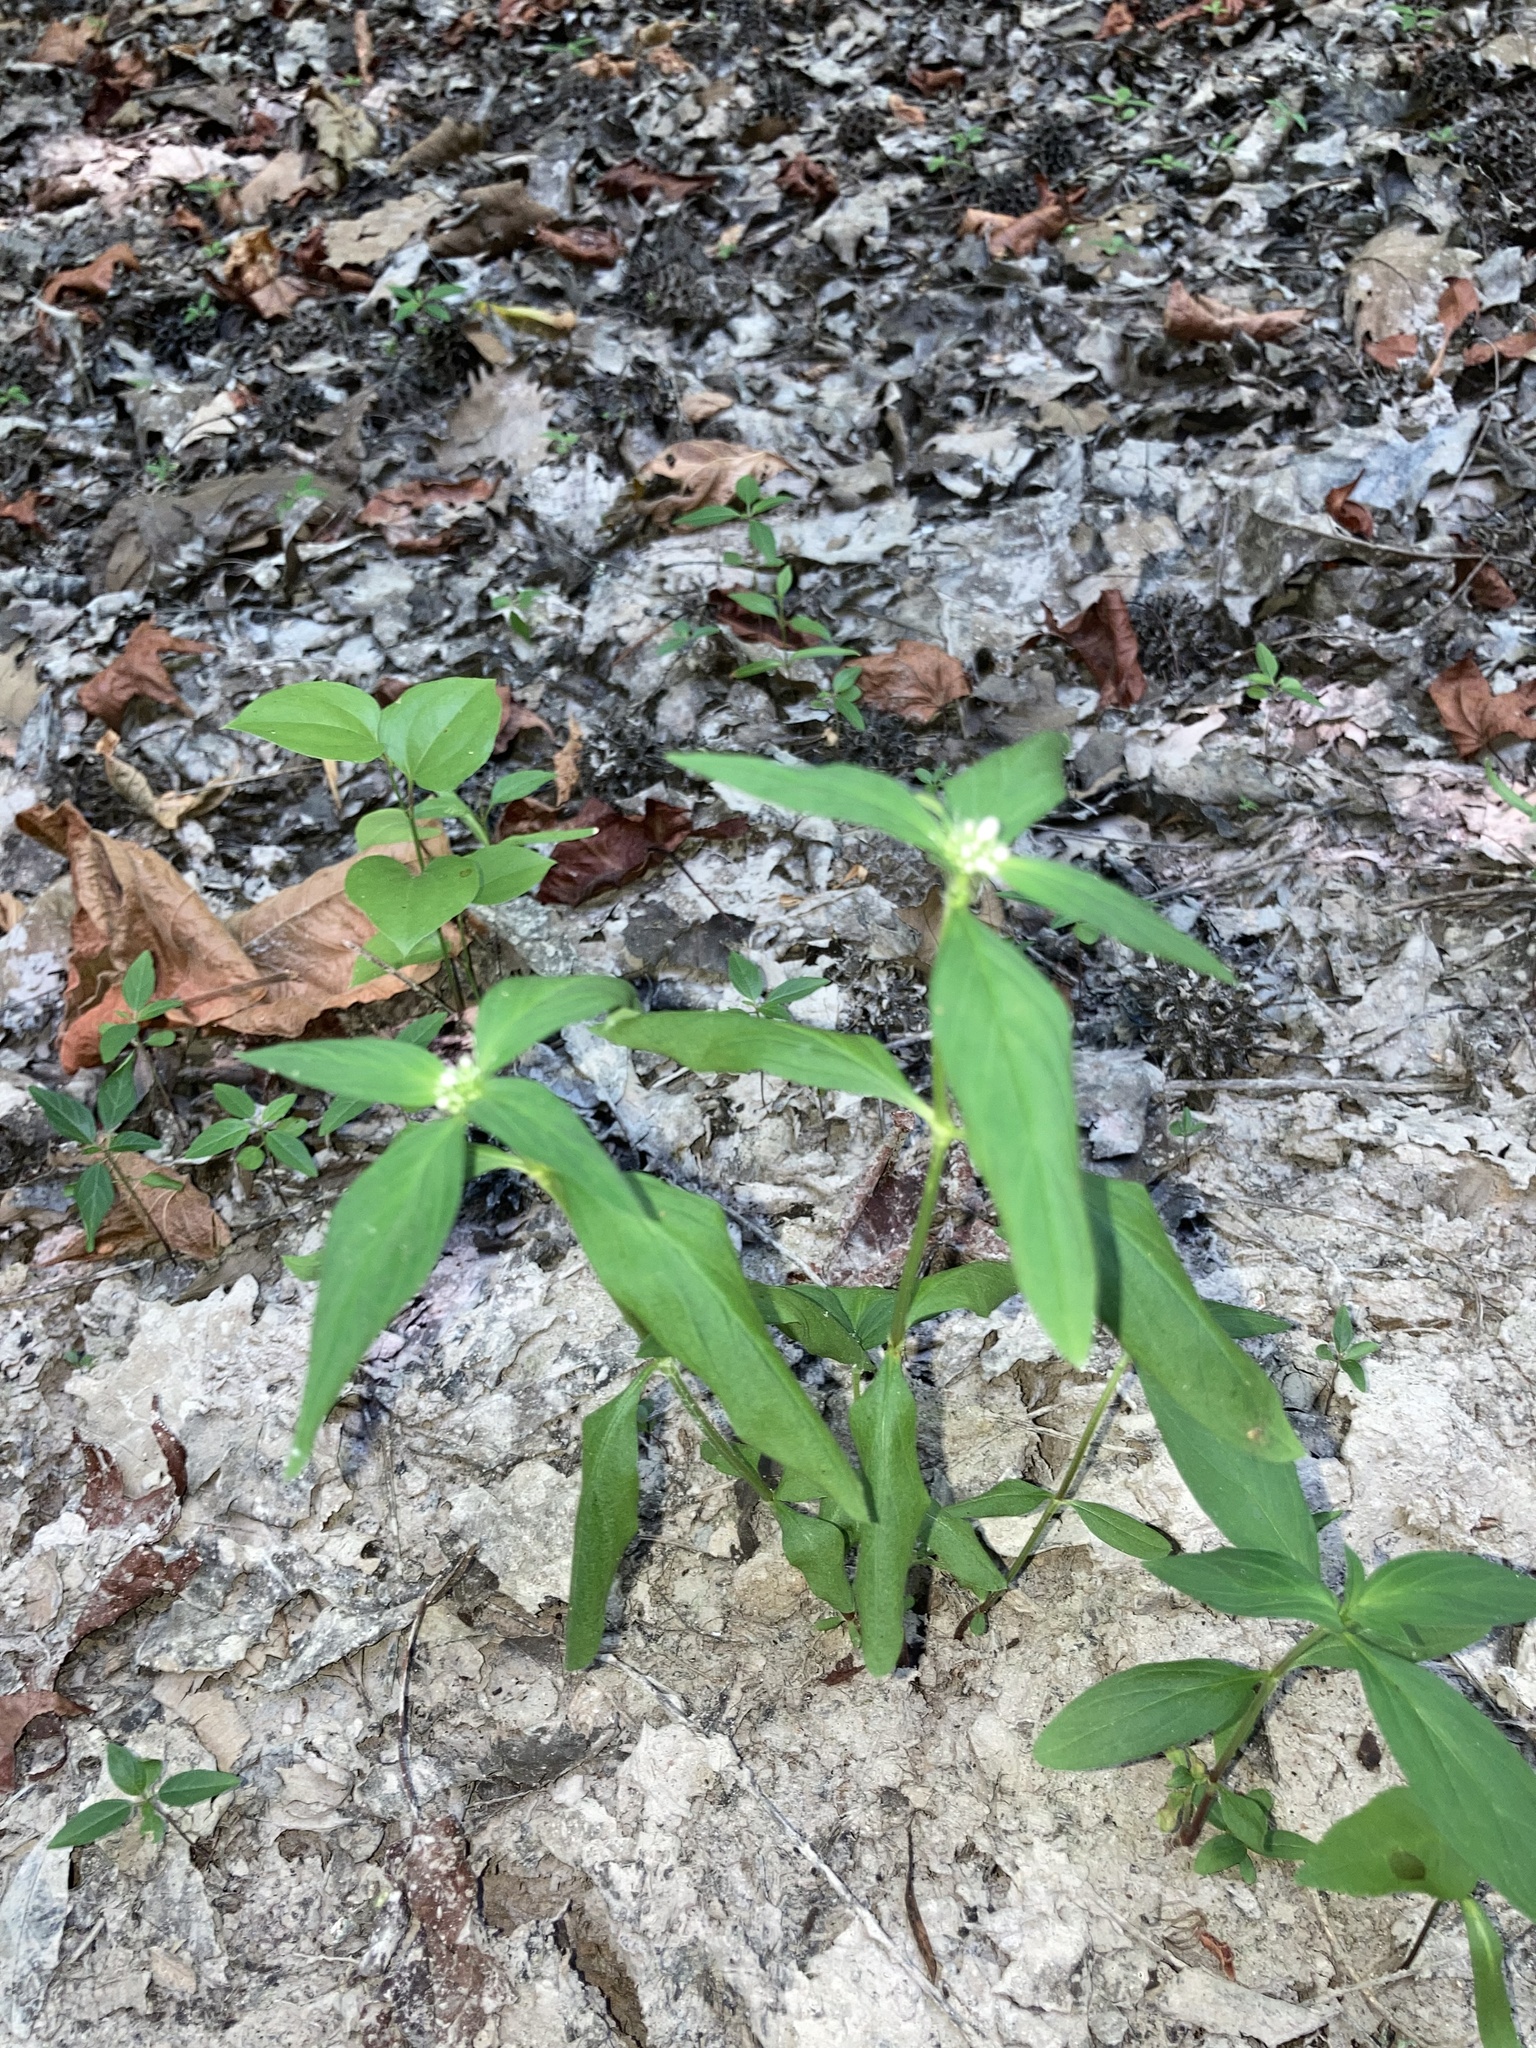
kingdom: Plantae
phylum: Tracheophyta
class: Magnoliopsida
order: Gentianales
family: Rubiaceae
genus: Spermacoce
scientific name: Spermacoce glabra
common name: Smooth buttonweed
